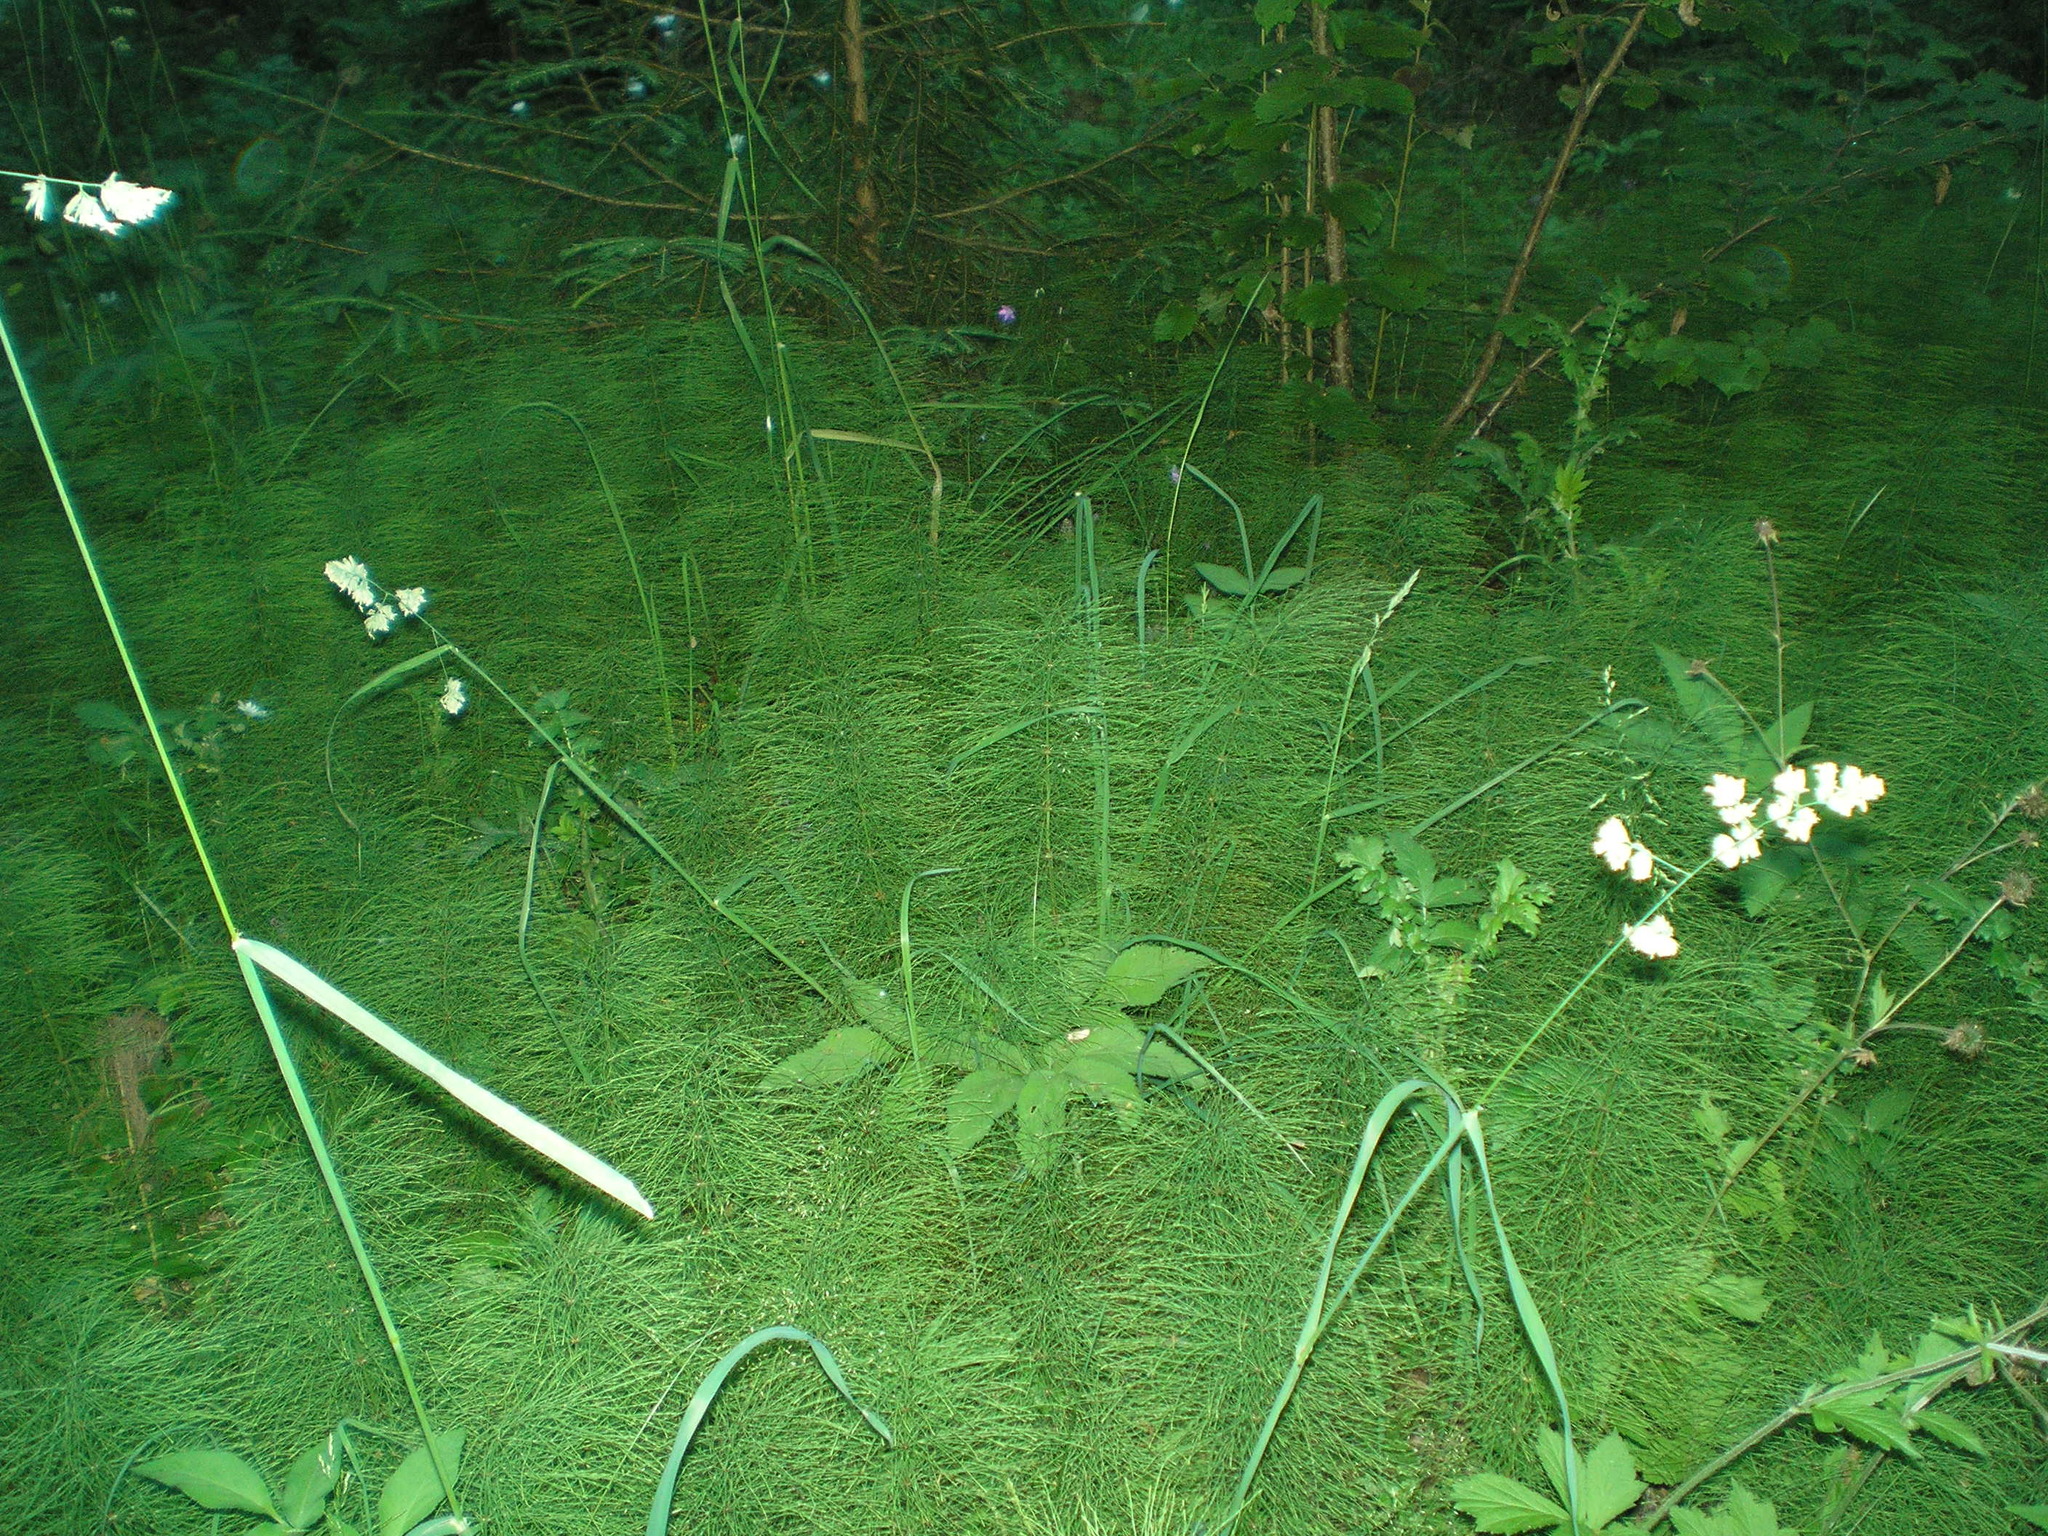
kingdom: Plantae
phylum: Tracheophyta
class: Liliopsida
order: Poales
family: Poaceae
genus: Dactylis
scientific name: Dactylis glomerata
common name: Orchardgrass
